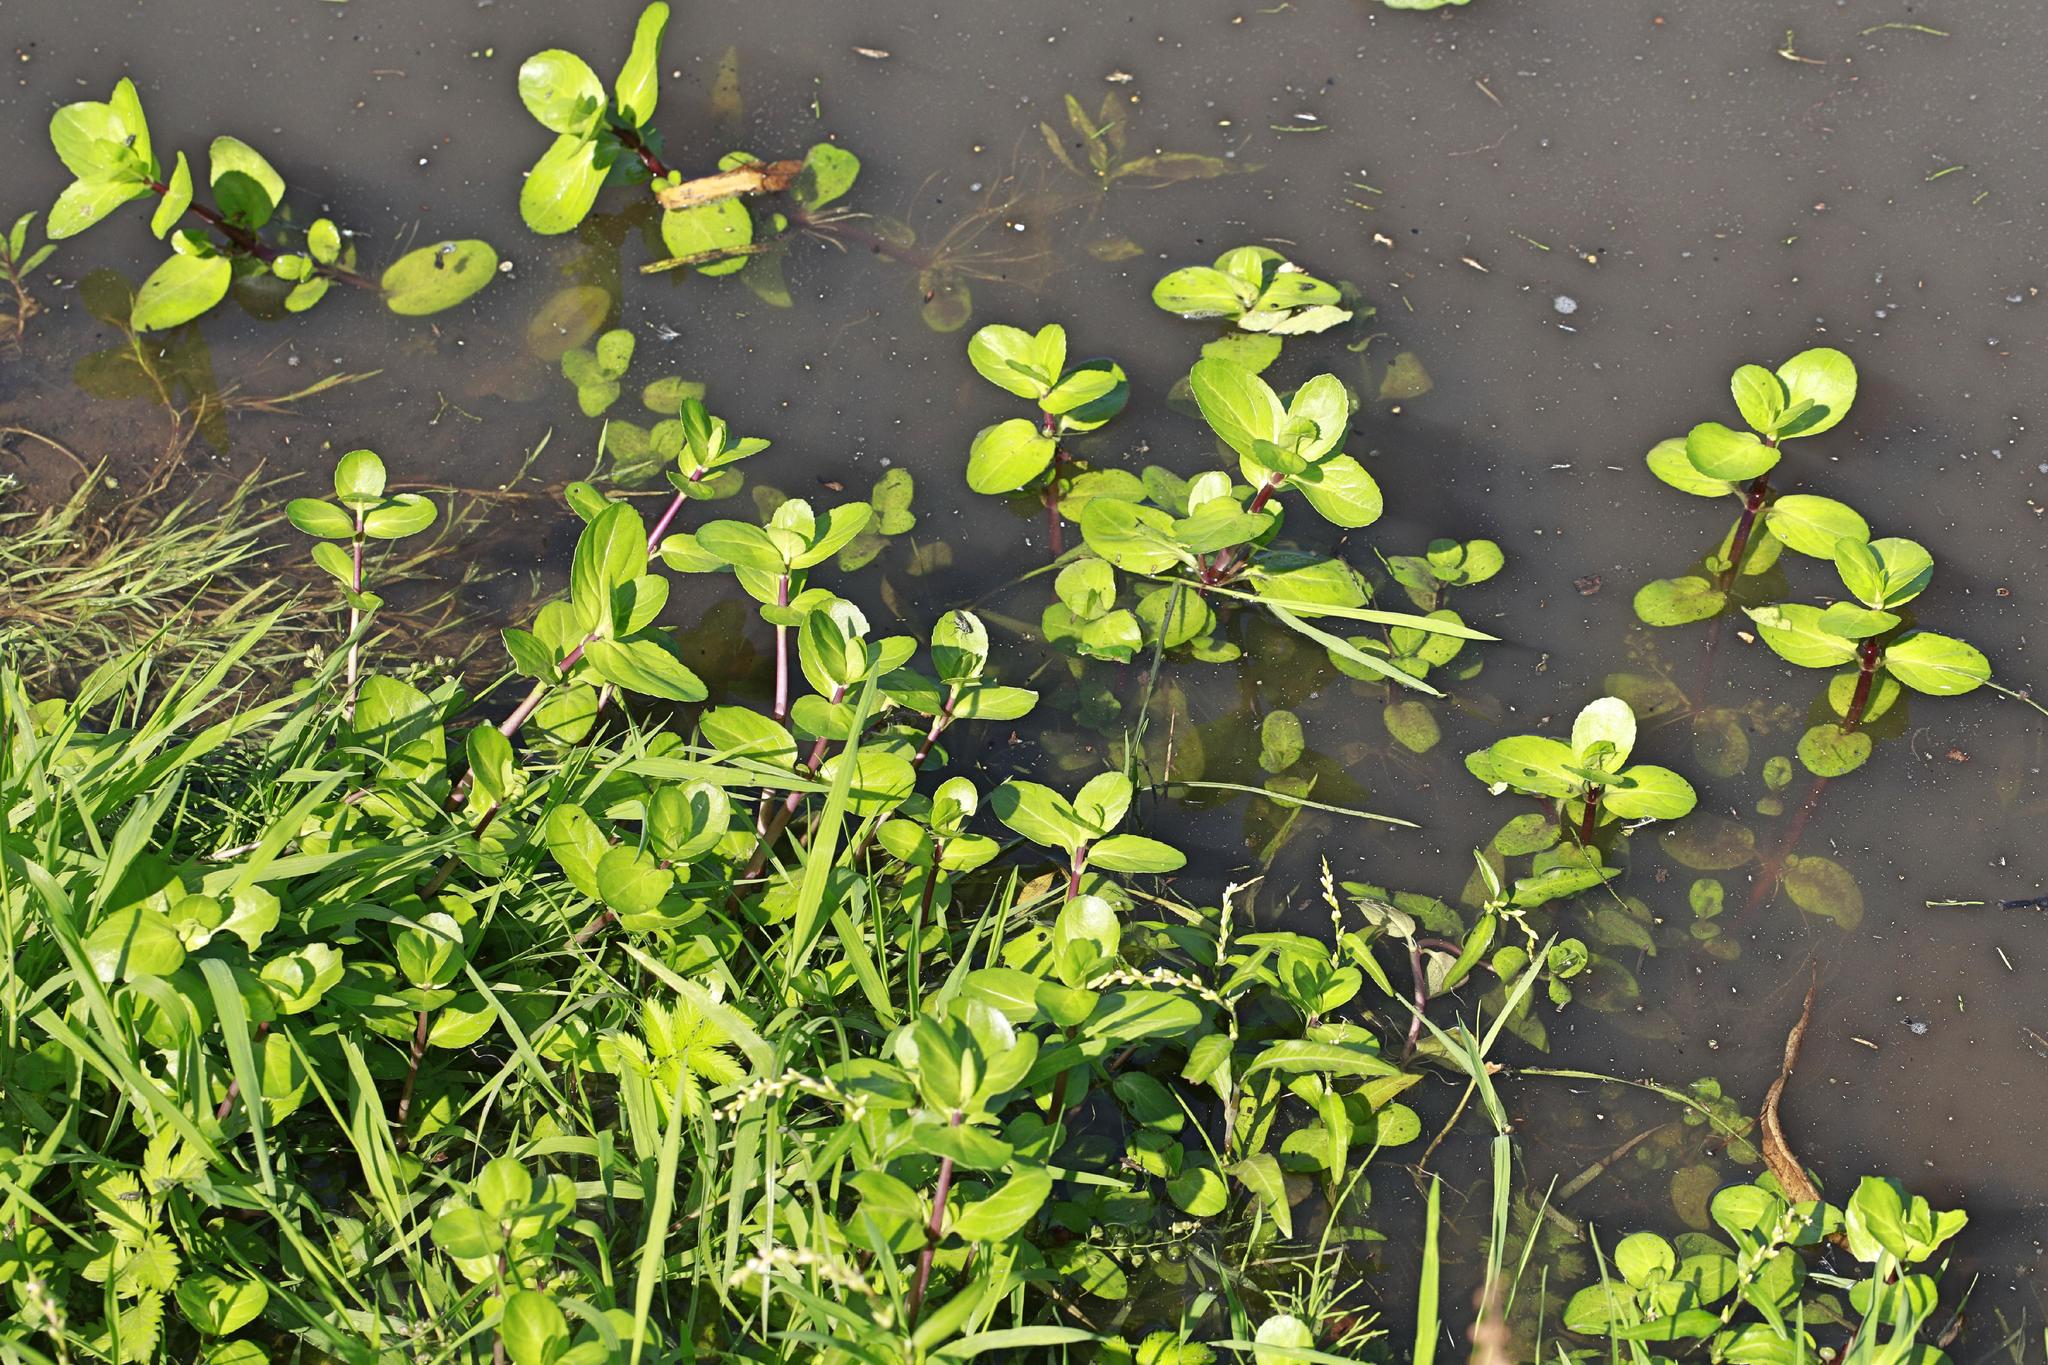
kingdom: Plantae
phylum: Tracheophyta
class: Magnoliopsida
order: Lamiales
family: Plantaginaceae
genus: Veronica
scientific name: Veronica beccabunga
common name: Brooklime
